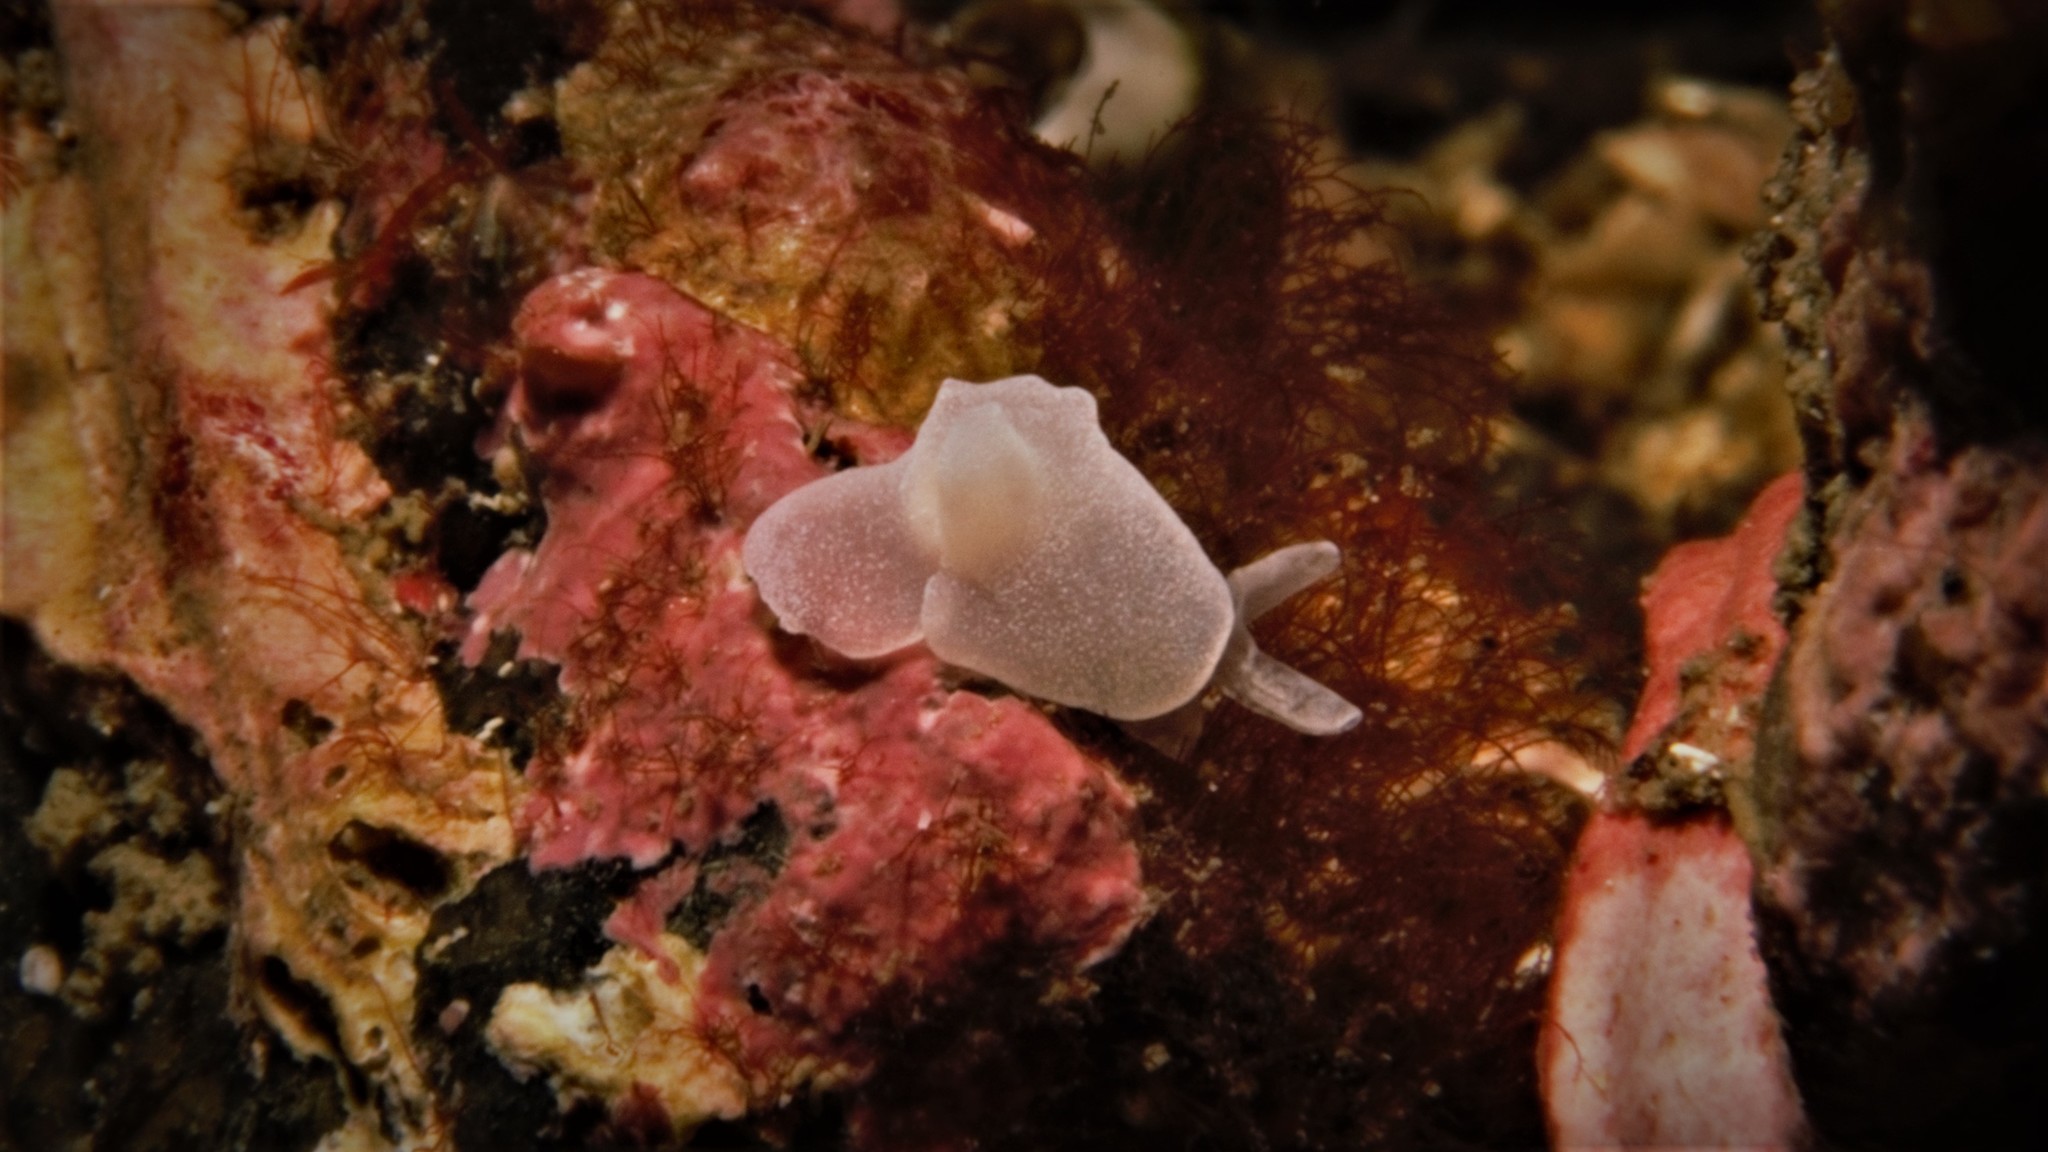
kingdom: Animalia
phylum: Mollusca
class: Gastropoda
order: Cephalaspidea
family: Colpodaspididae
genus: Colpodaspis
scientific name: Colpodaspis pusilla
